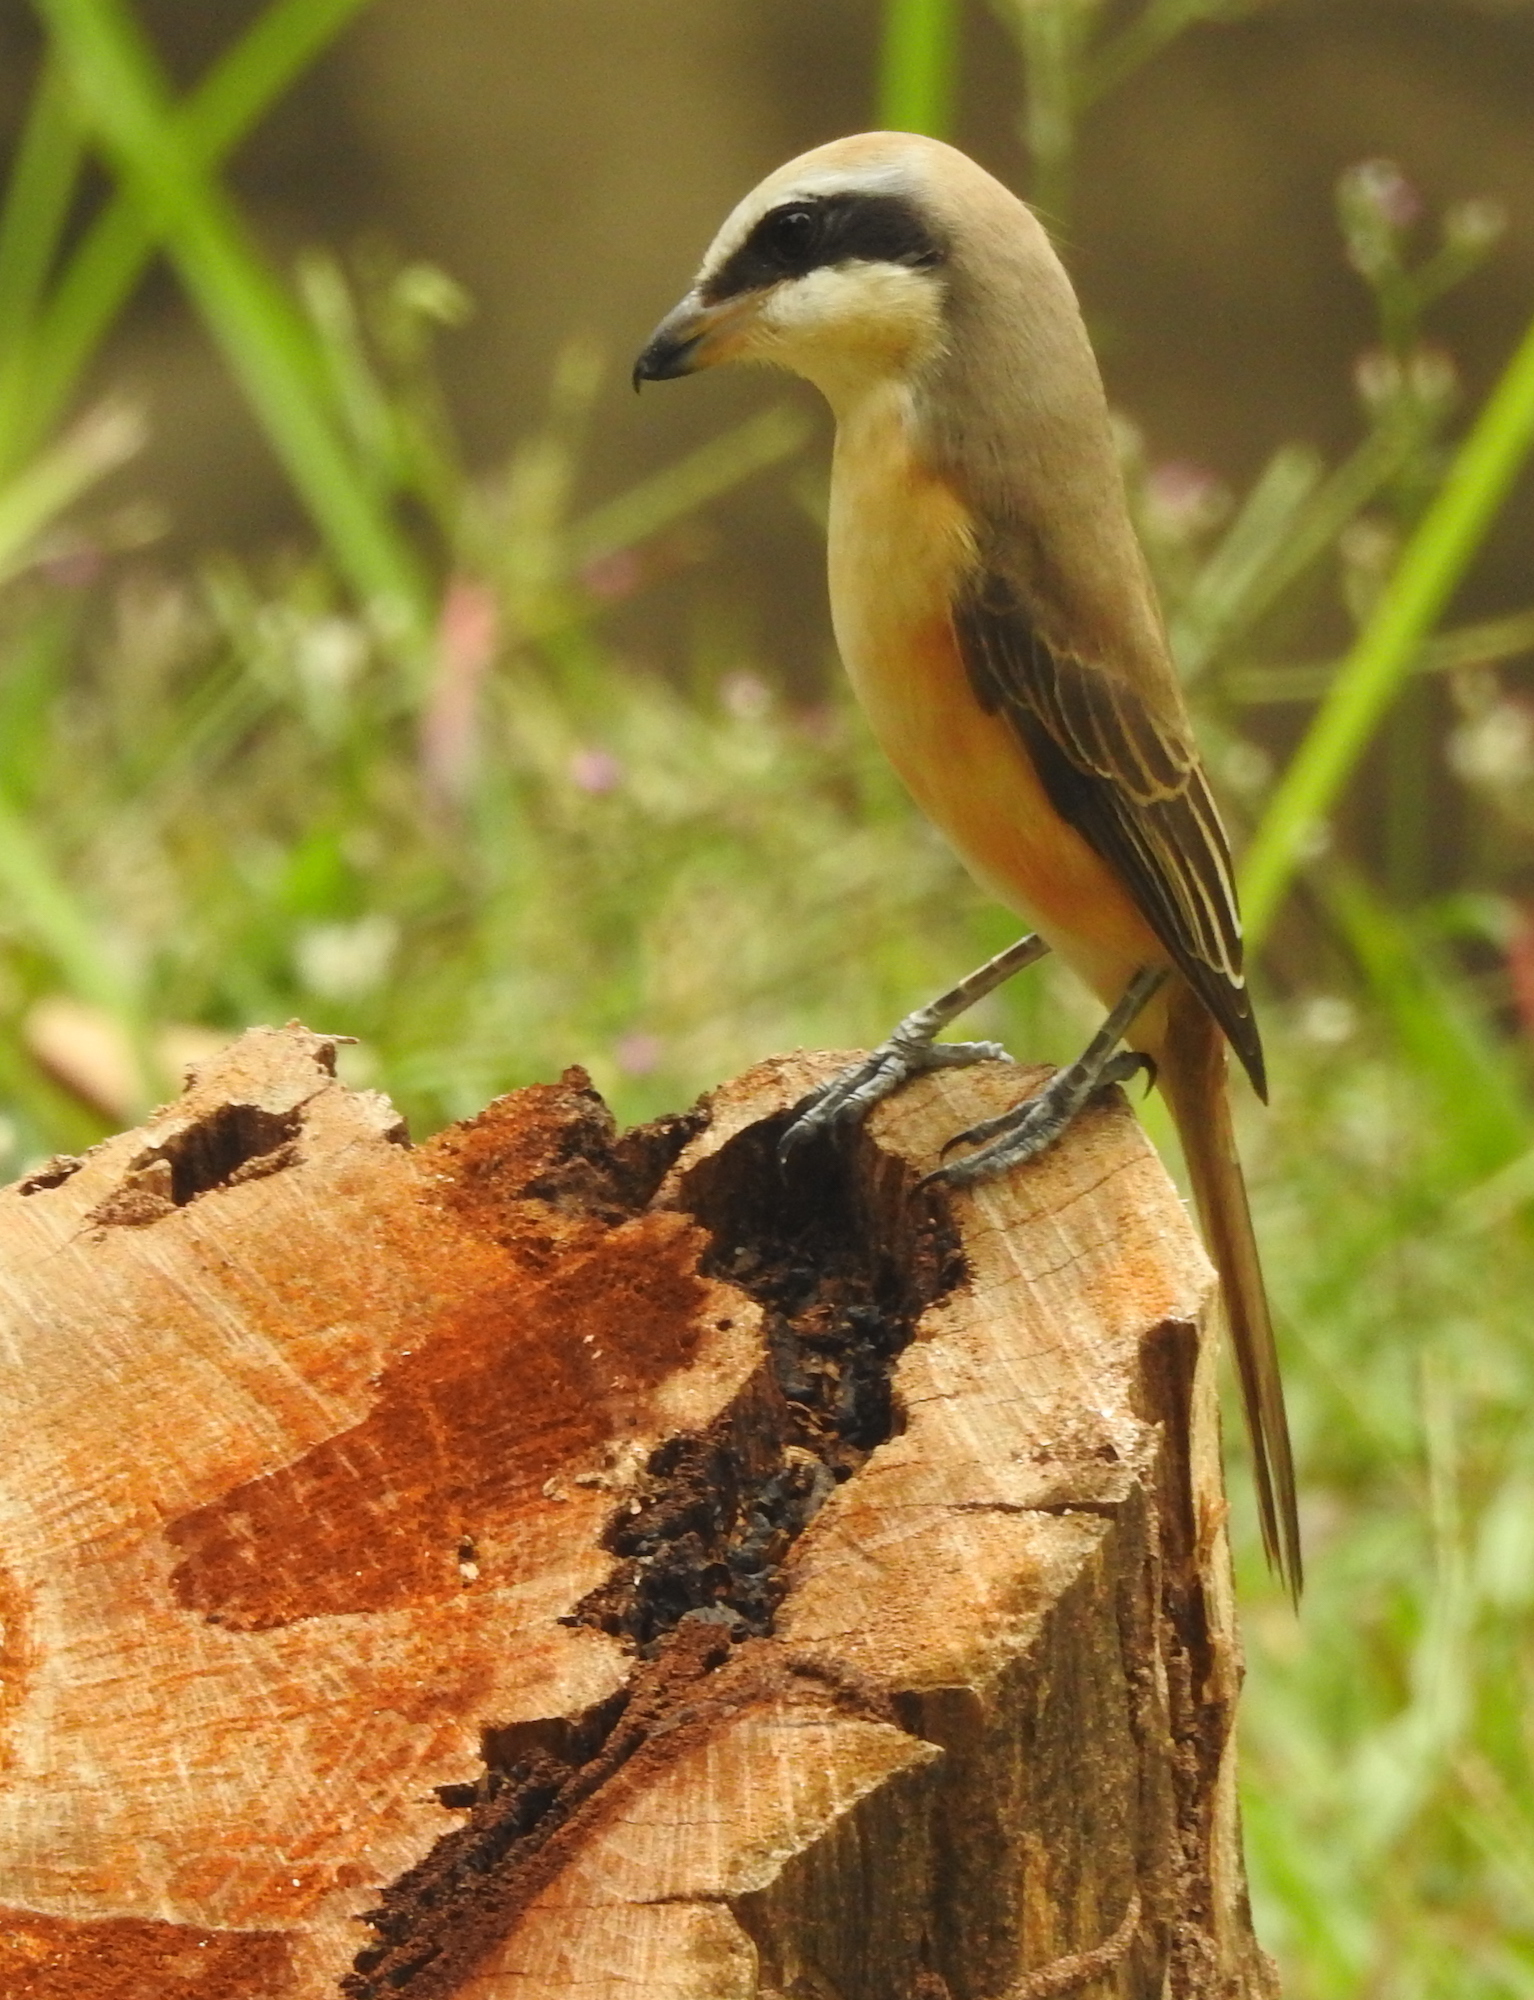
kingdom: Animalia
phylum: Chordata
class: Aves
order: Passeriformes
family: Laniidae
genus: Lanius
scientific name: Lanius cristatus
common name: Brown shrike
